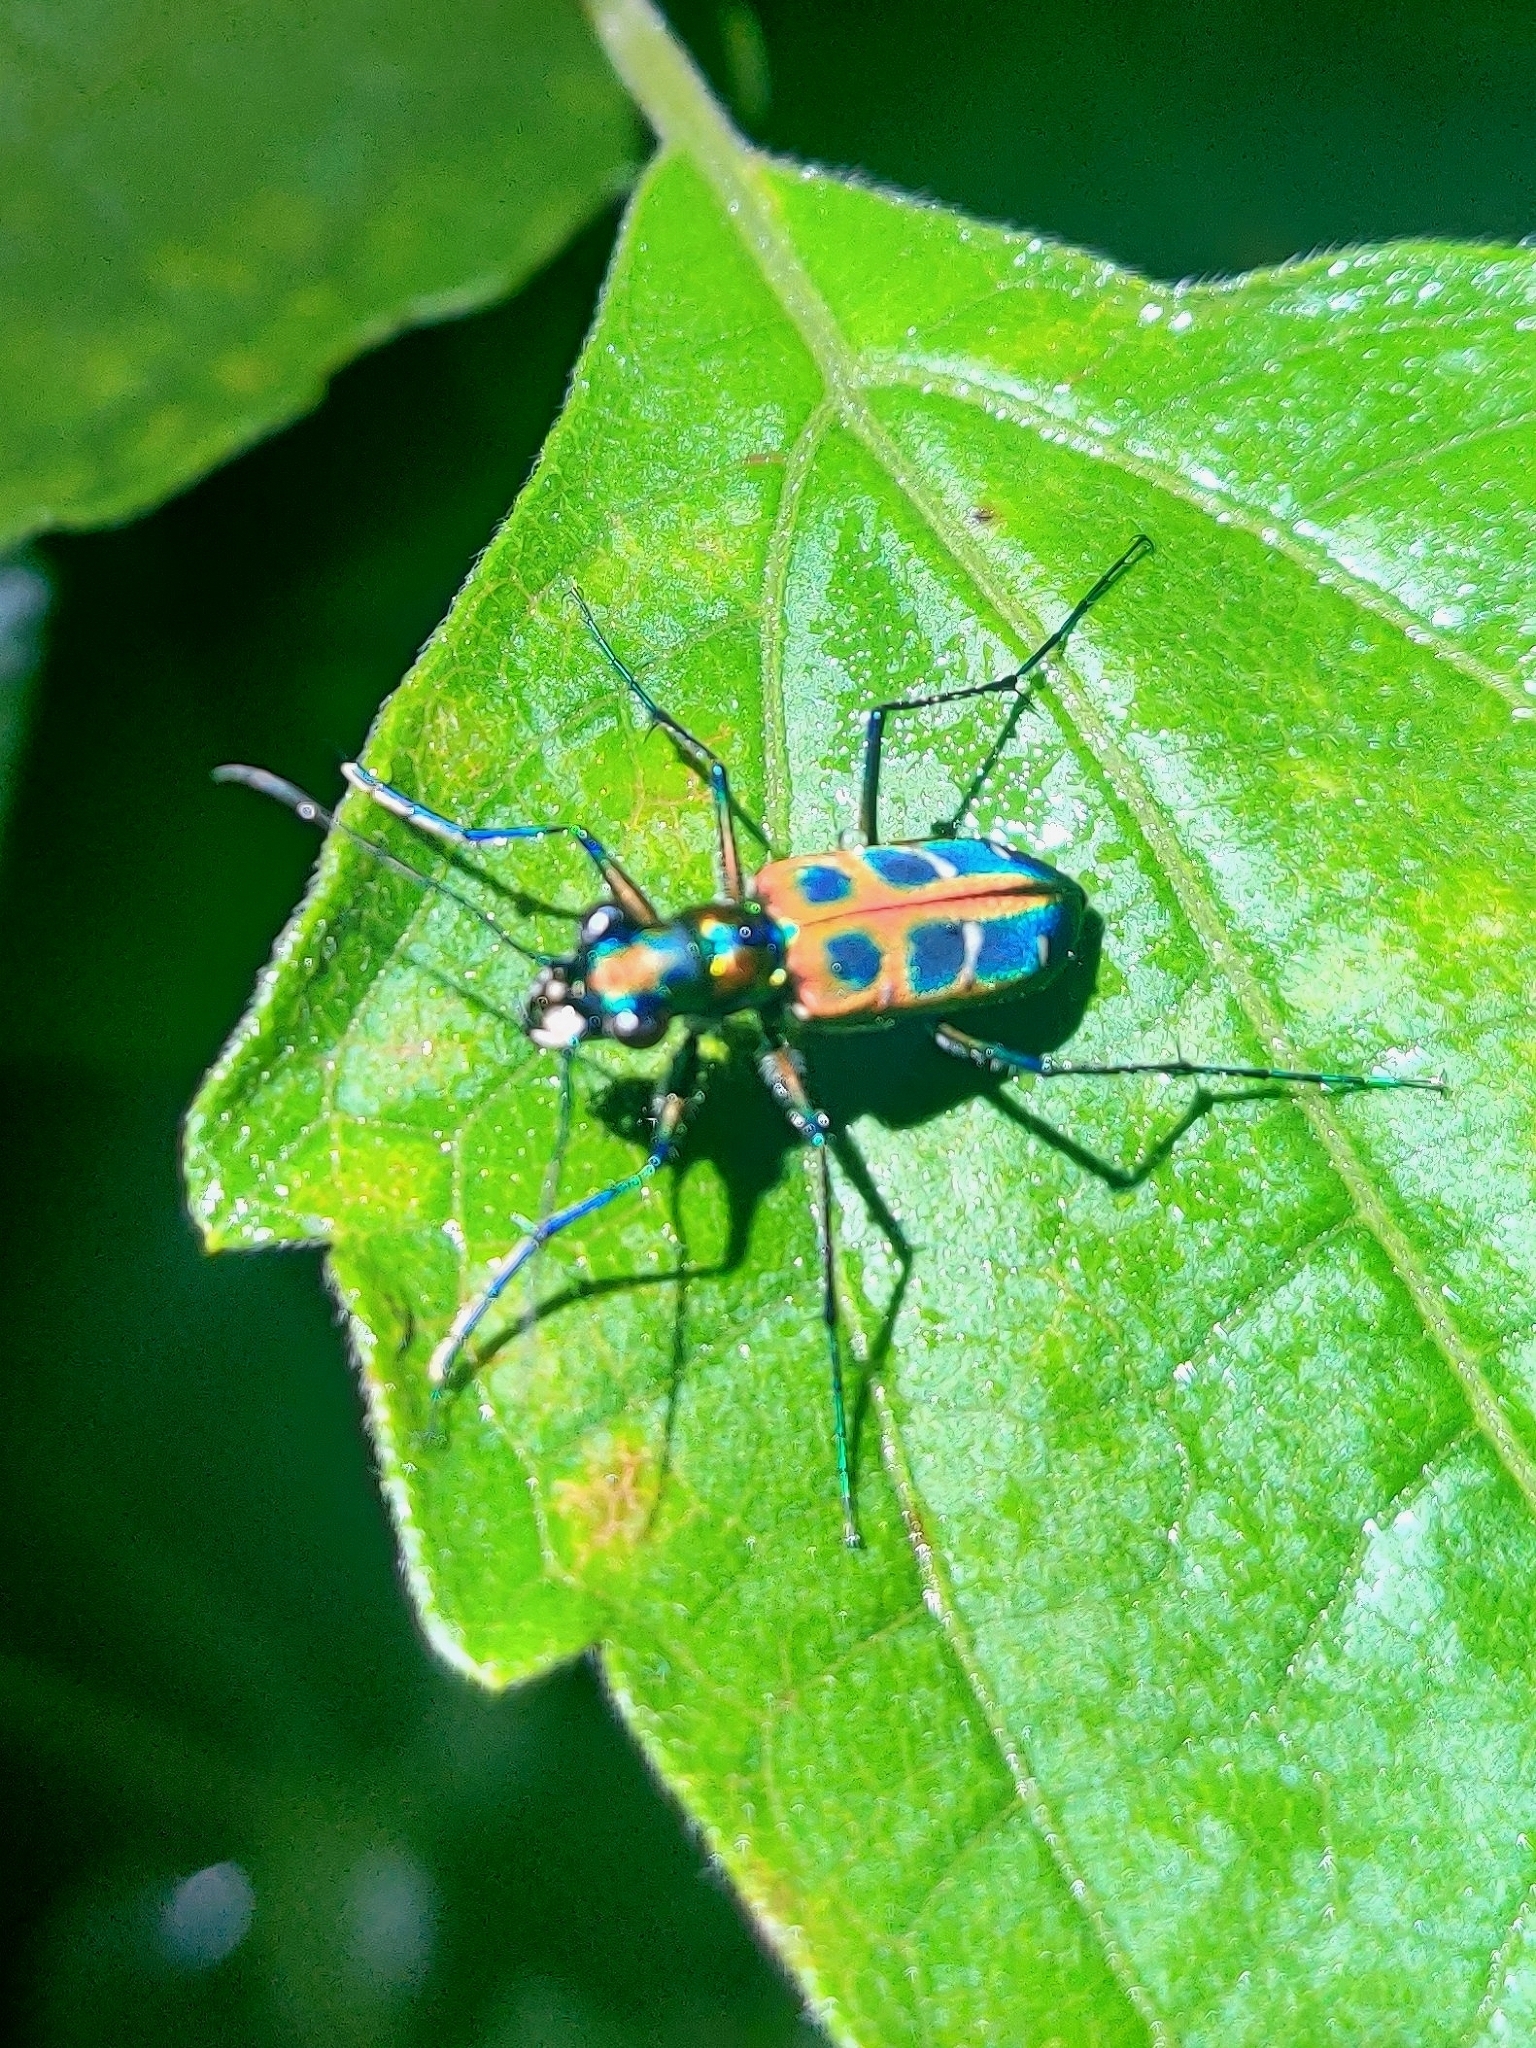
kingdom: Animalia
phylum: Arthropoda
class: Insecta
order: Coleoptera
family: Carabidae
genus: Cicindela
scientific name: Cicindela barmanica
